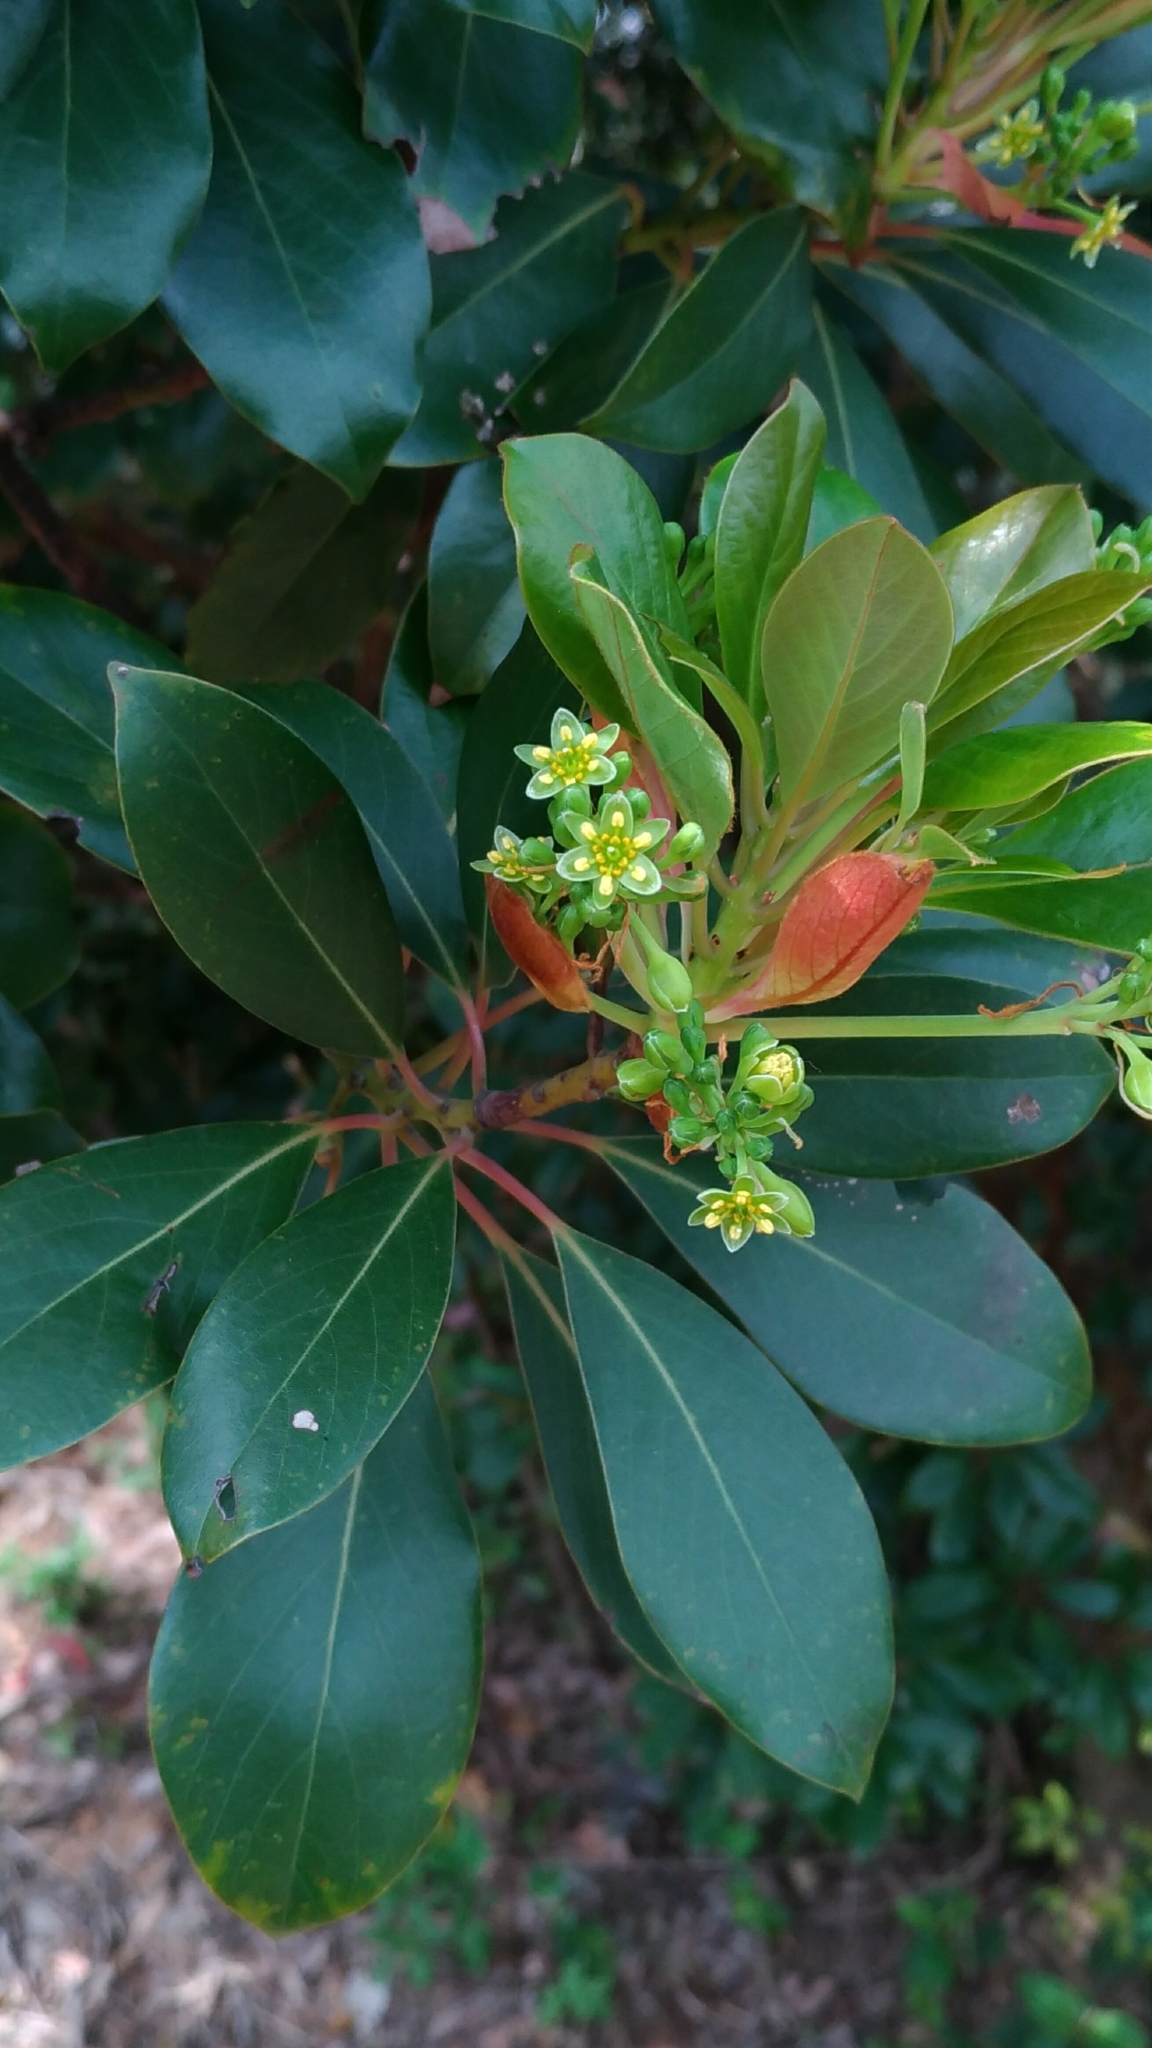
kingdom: Plantae
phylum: Tracheophyta
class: Magnoliopsida
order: Laurales
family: Lauraceae
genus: Machilus
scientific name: Machilus thunbergii
